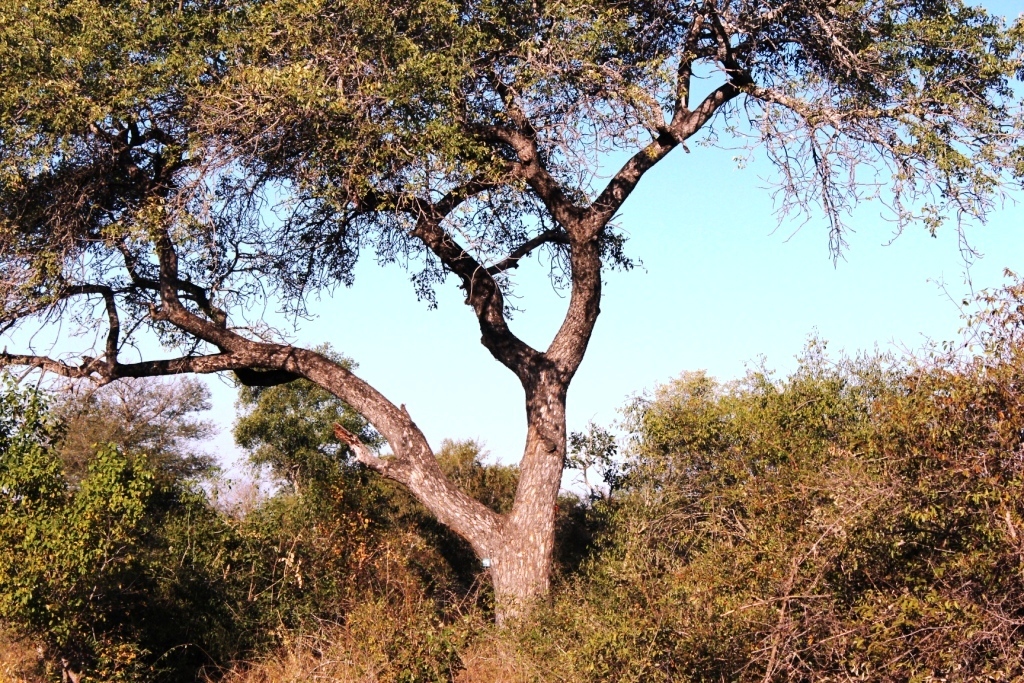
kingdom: Plantae
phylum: Tracheophyta
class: Magnoliopsida
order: Sapindales
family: Anacardiaceae
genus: Sclerocarya
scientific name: Sclerocarya birrea
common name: Marula
